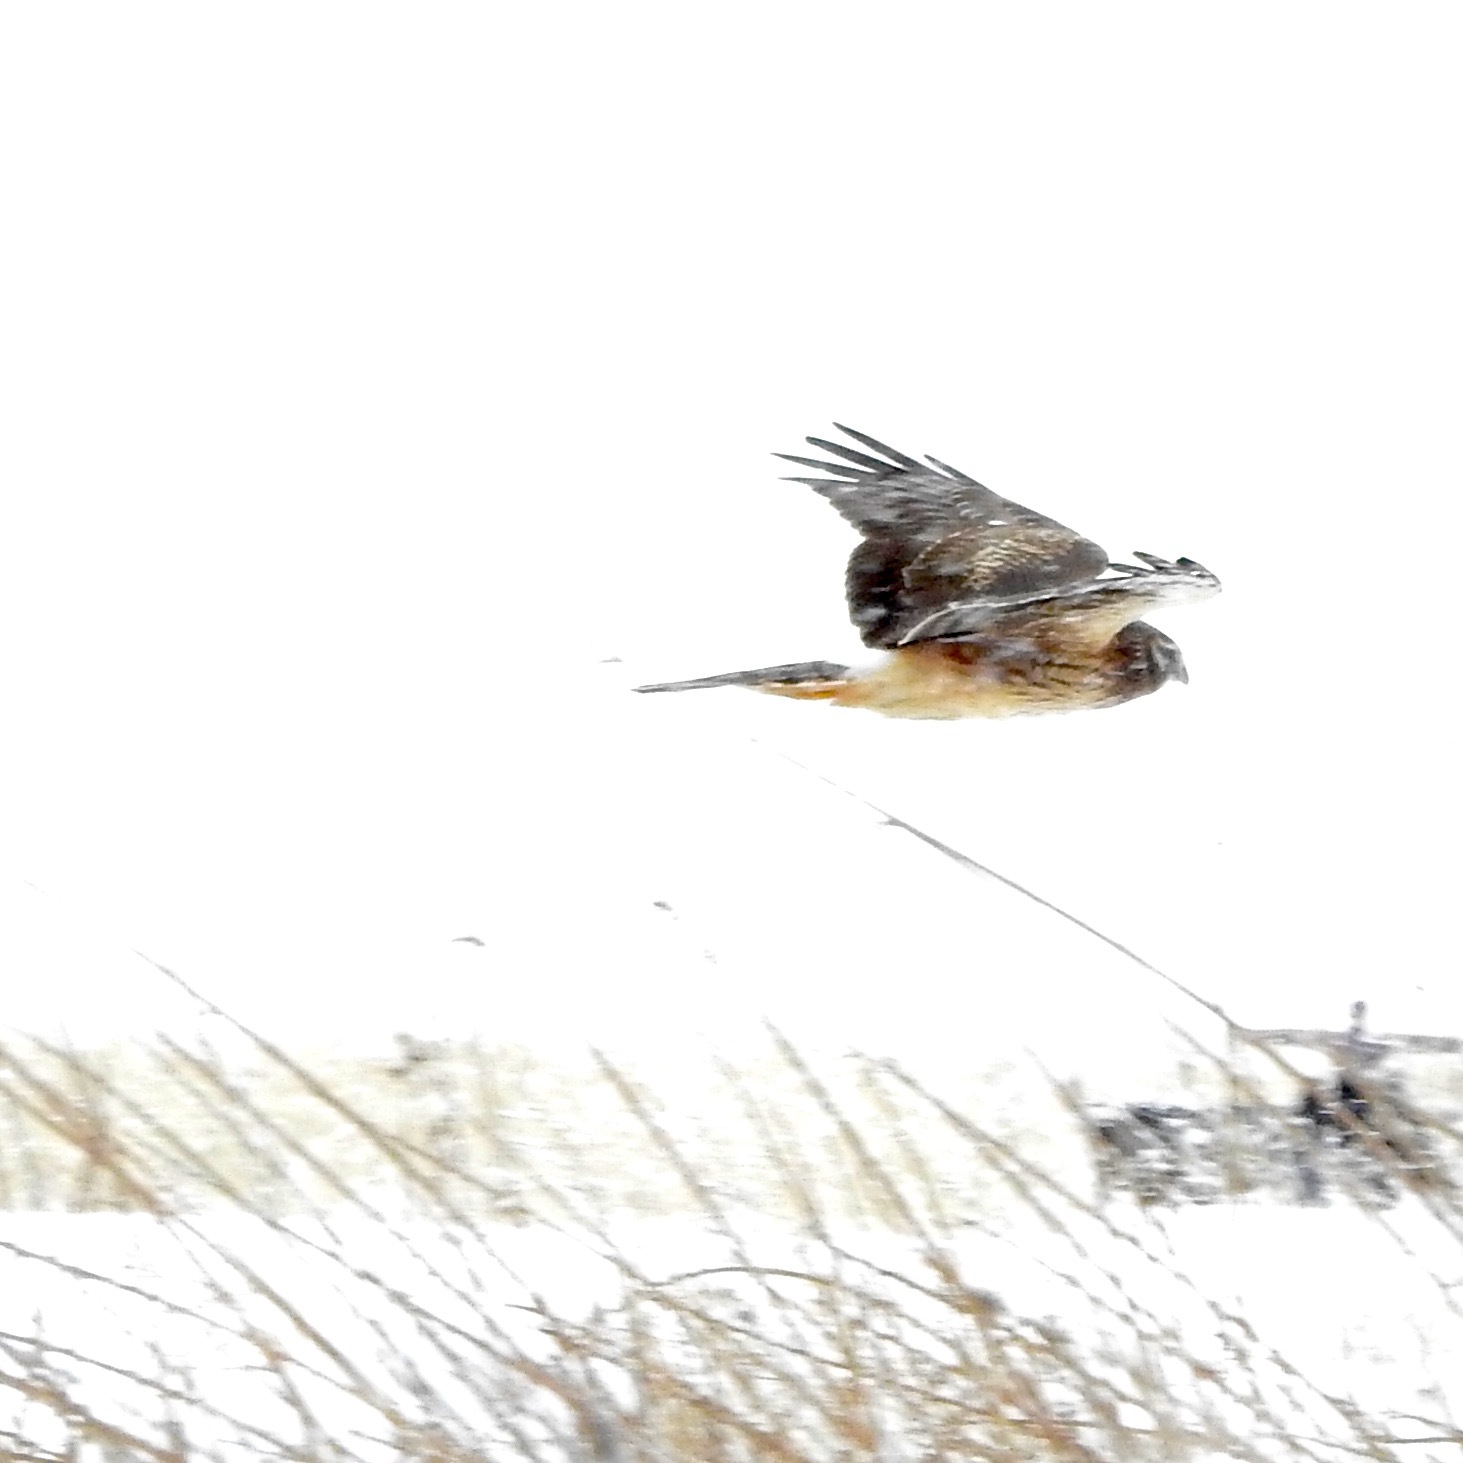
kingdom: Animalia
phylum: Chordata
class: Aves
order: Accipitriformes
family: Accipitridae
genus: Circus
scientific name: Circus cyaneus
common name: Hen harrier
